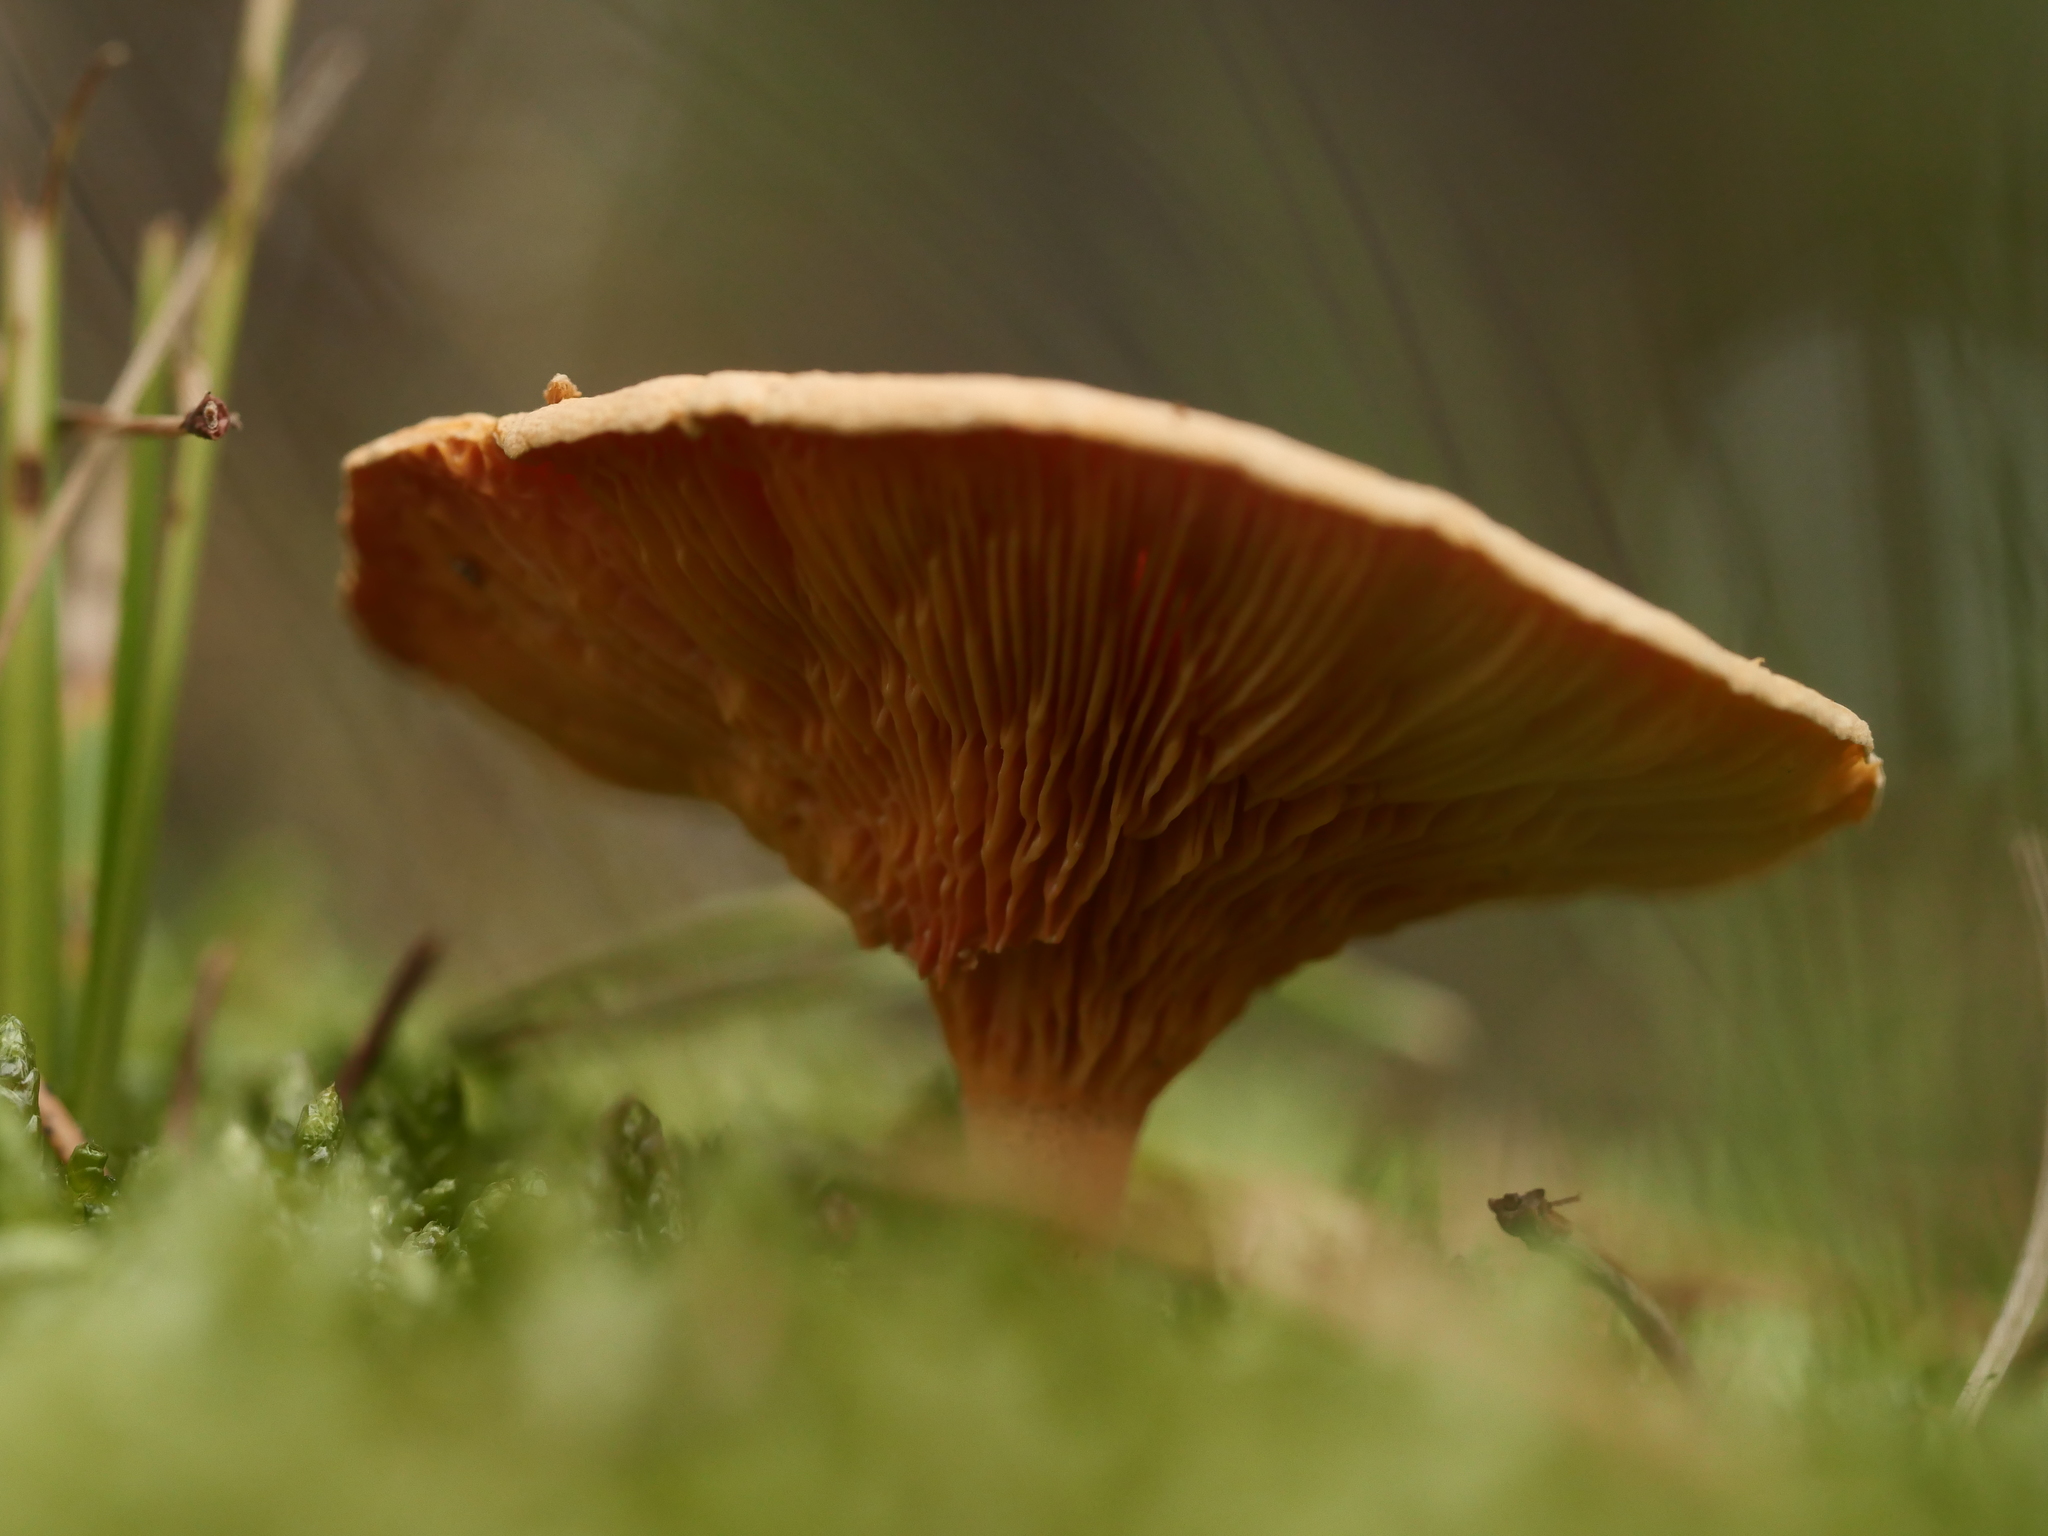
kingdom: Fungi
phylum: Basidiomycota
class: Agaricomycetes
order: Boletales
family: Hygrophoropsidaceae
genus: Hygrophoropsis
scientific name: Hygrophoropsis aurantiaca
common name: False chanterelle
